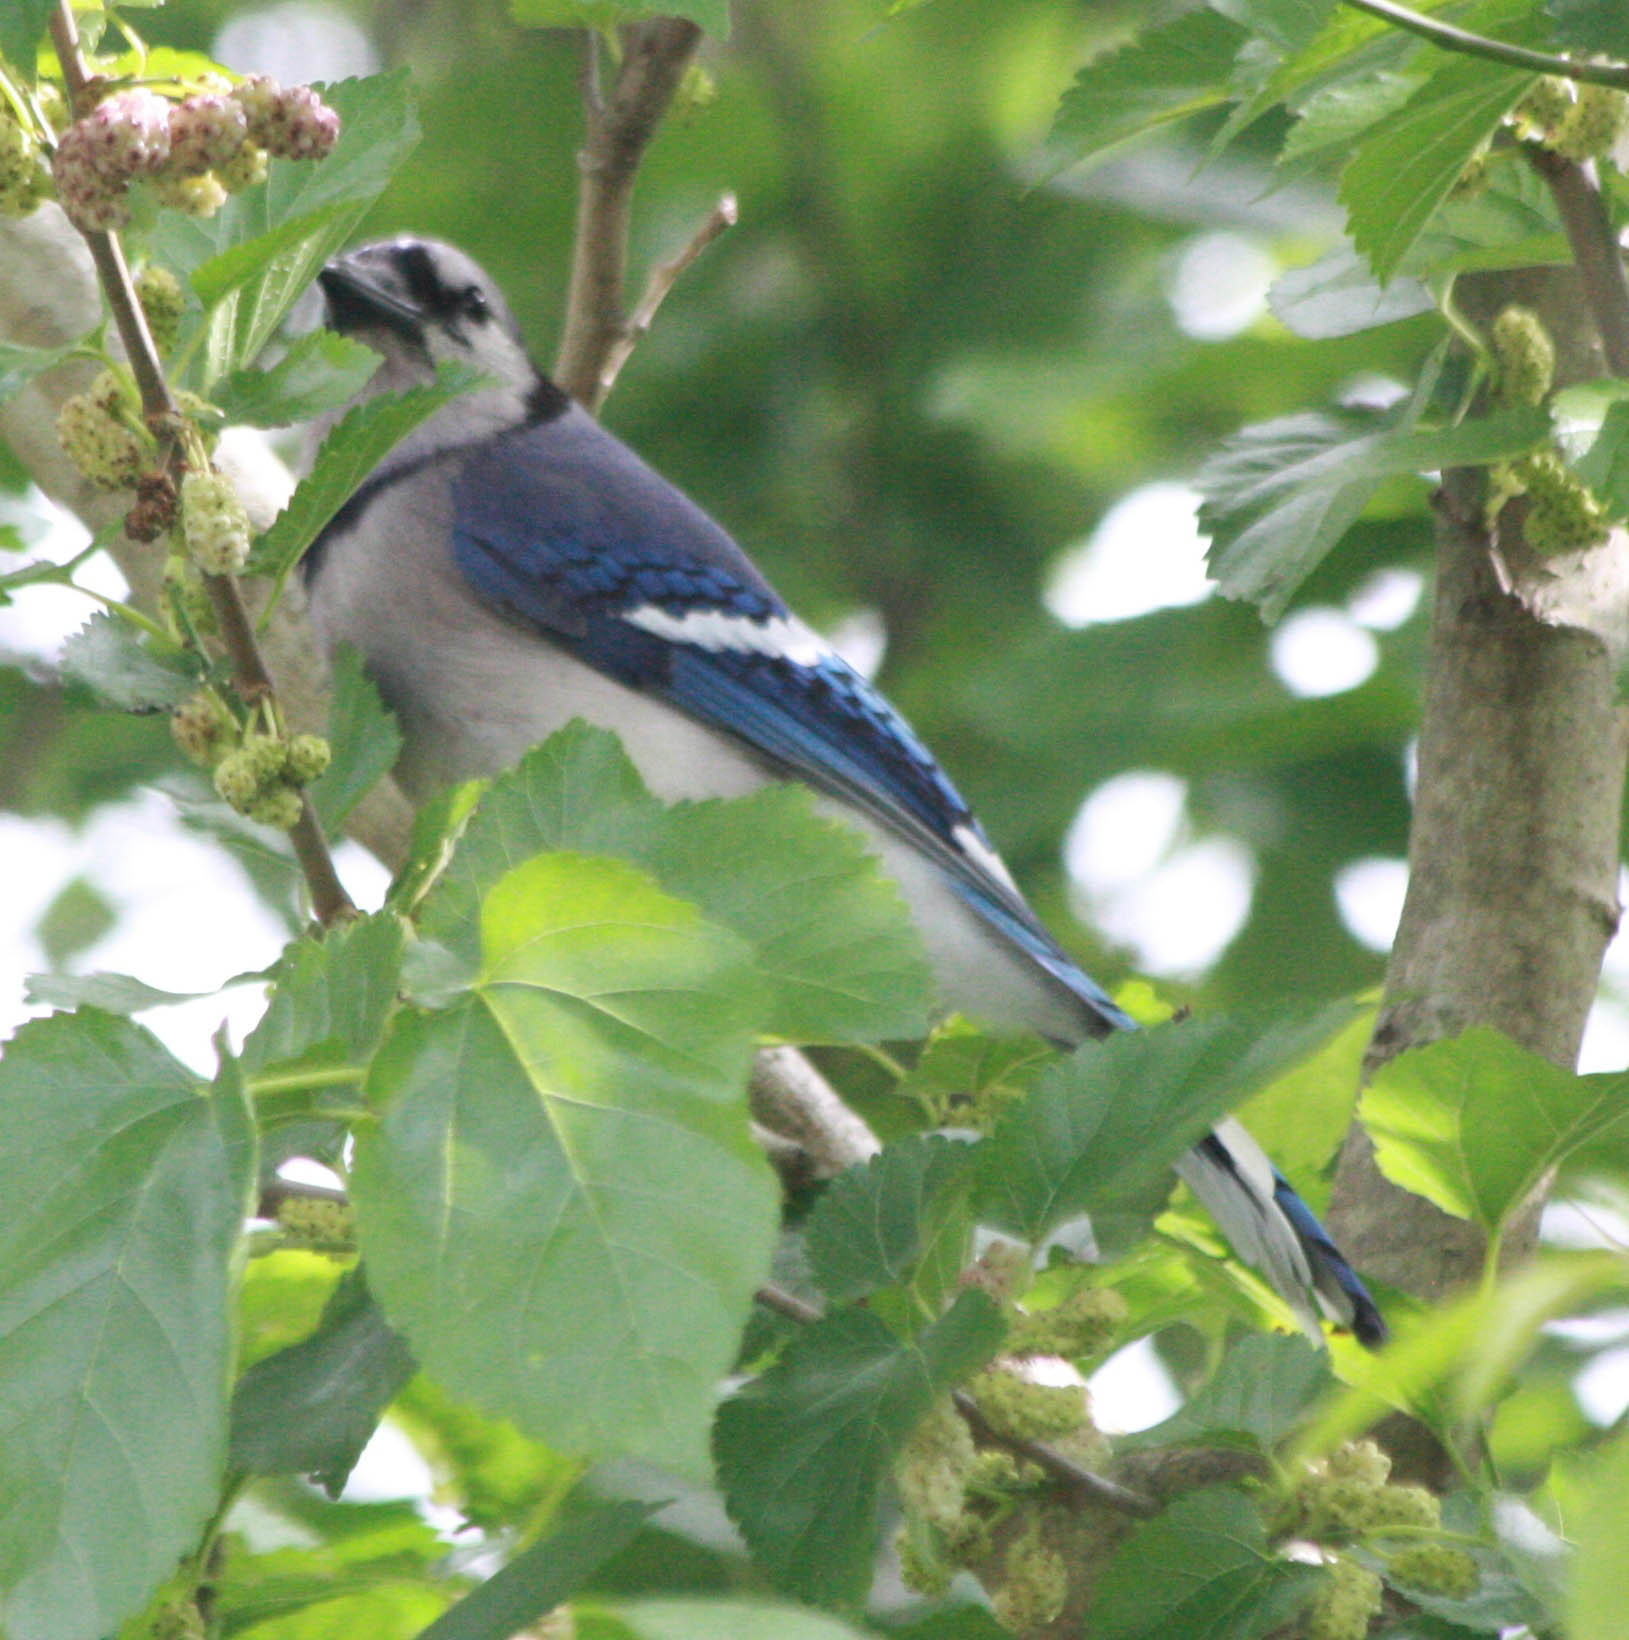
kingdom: Animalia
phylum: Chordata
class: Aves
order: Passeriformes
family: Corvidae
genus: Cyanocitta
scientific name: Cyanocitta cristata
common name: Blue jay
